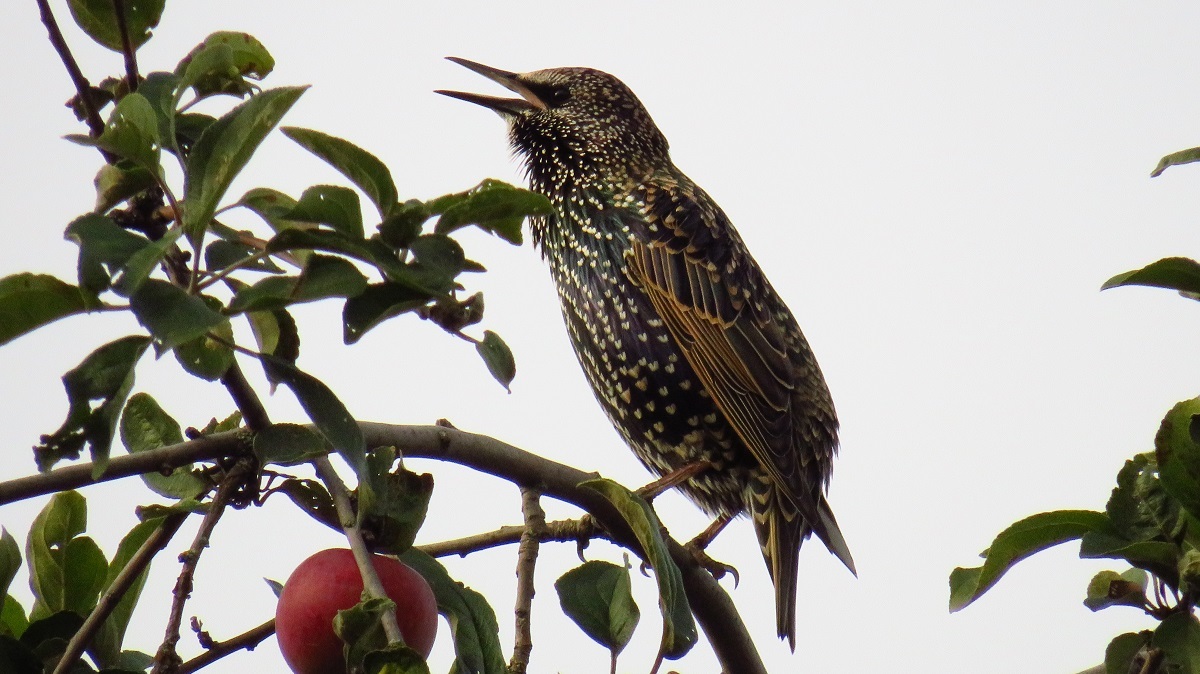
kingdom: Animalia
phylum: Chordata
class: Aves
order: Passeriformes
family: Sturnidae
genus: Sturnus
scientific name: Sturnus vulgaris
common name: Common starling
